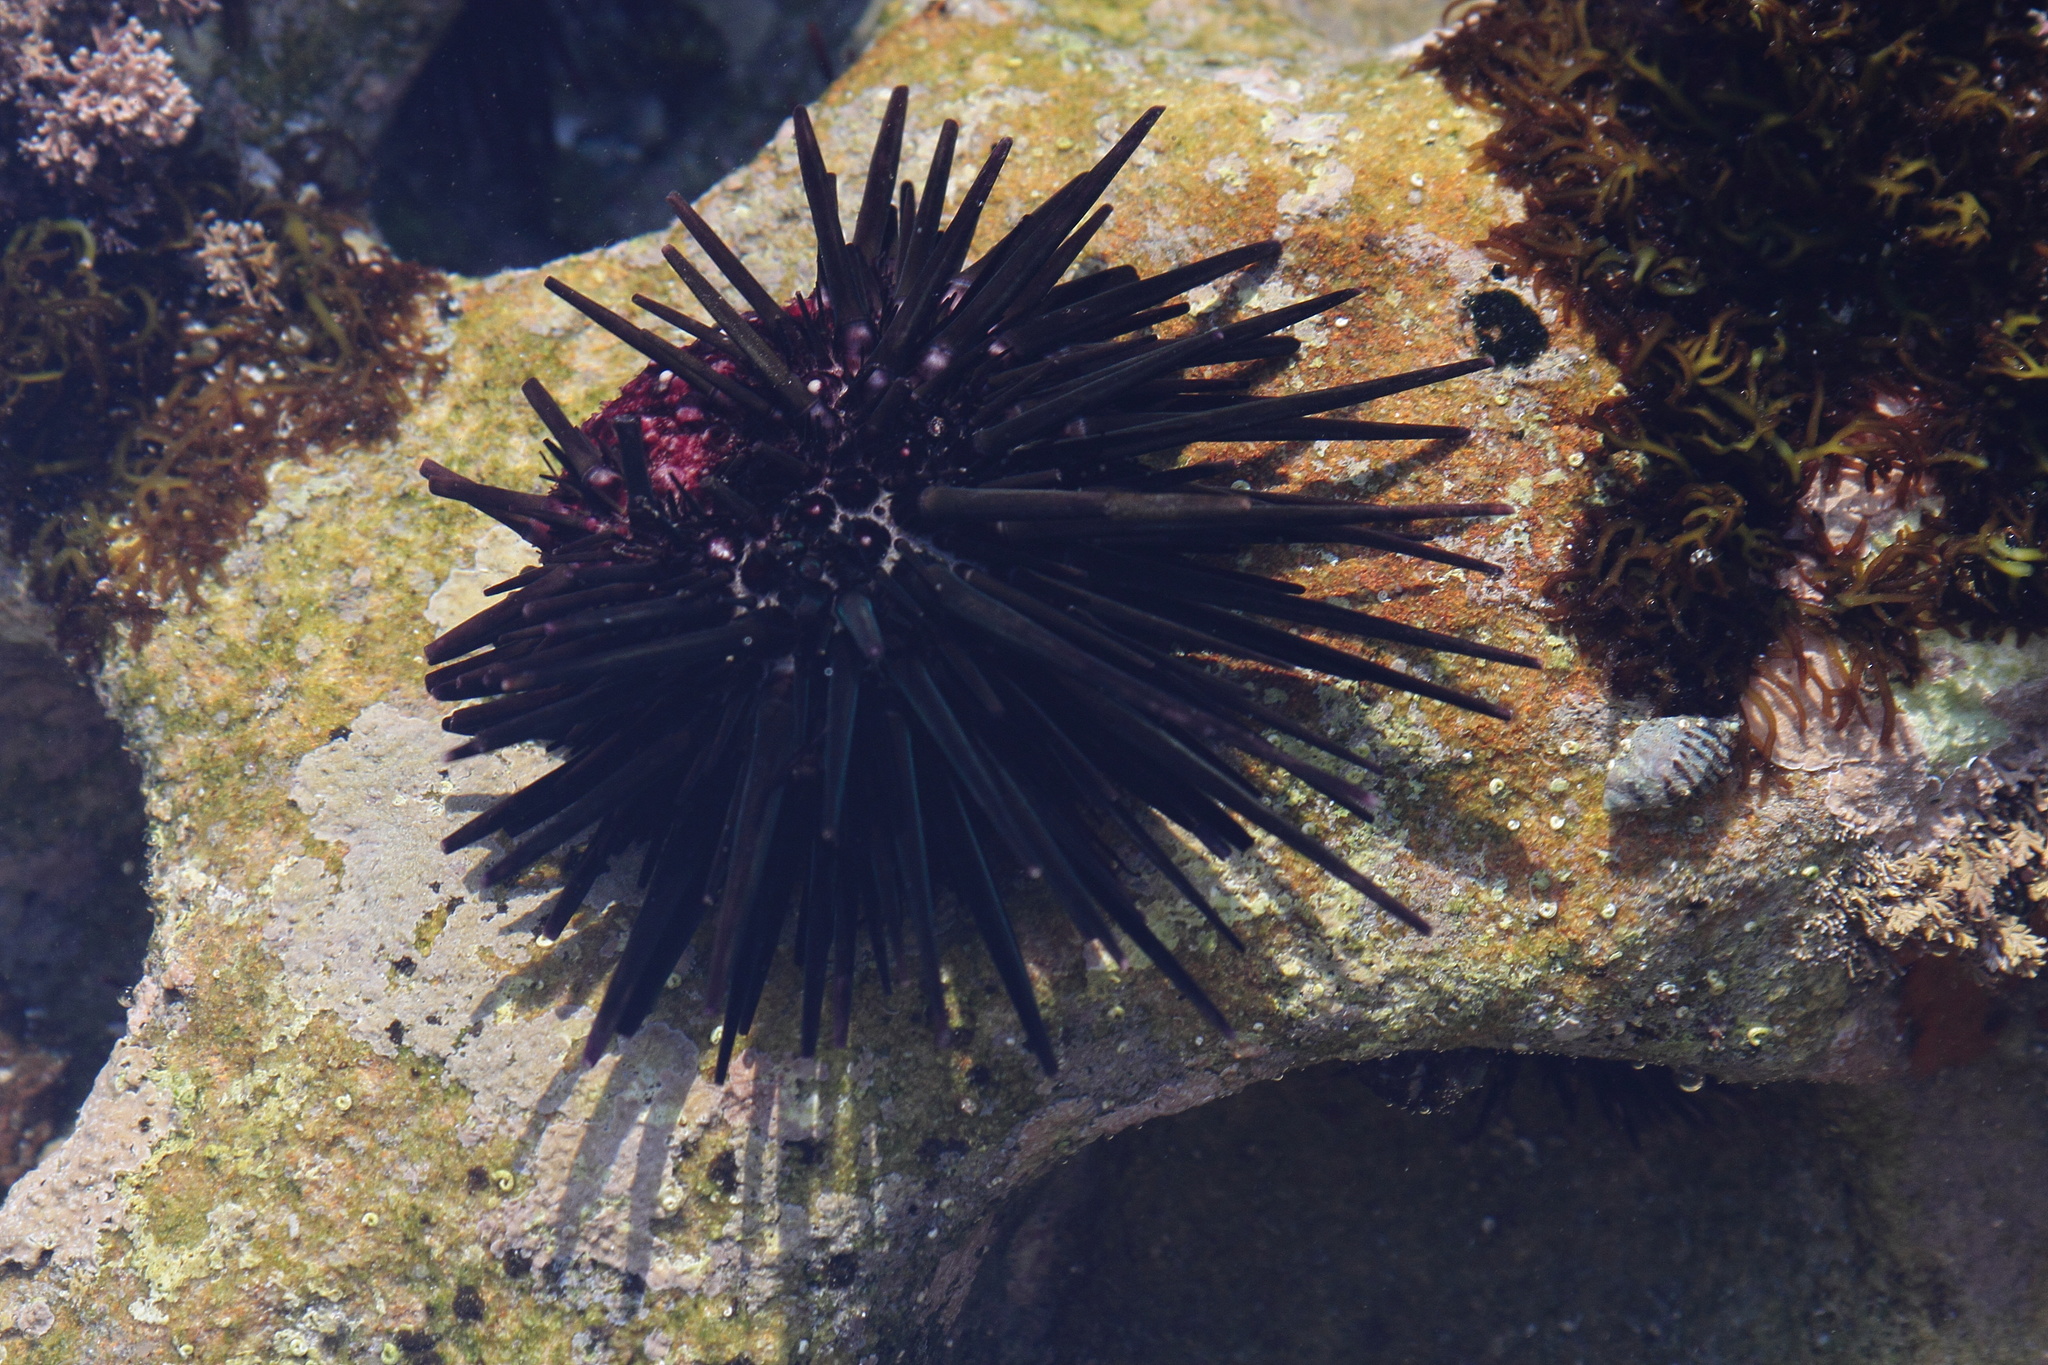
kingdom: Animalia
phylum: Echinodermata
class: Echinoidea
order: Stomopneustoida
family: Stomopneustidae
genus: Stomopneustes
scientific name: Stomopneustes variolaris
